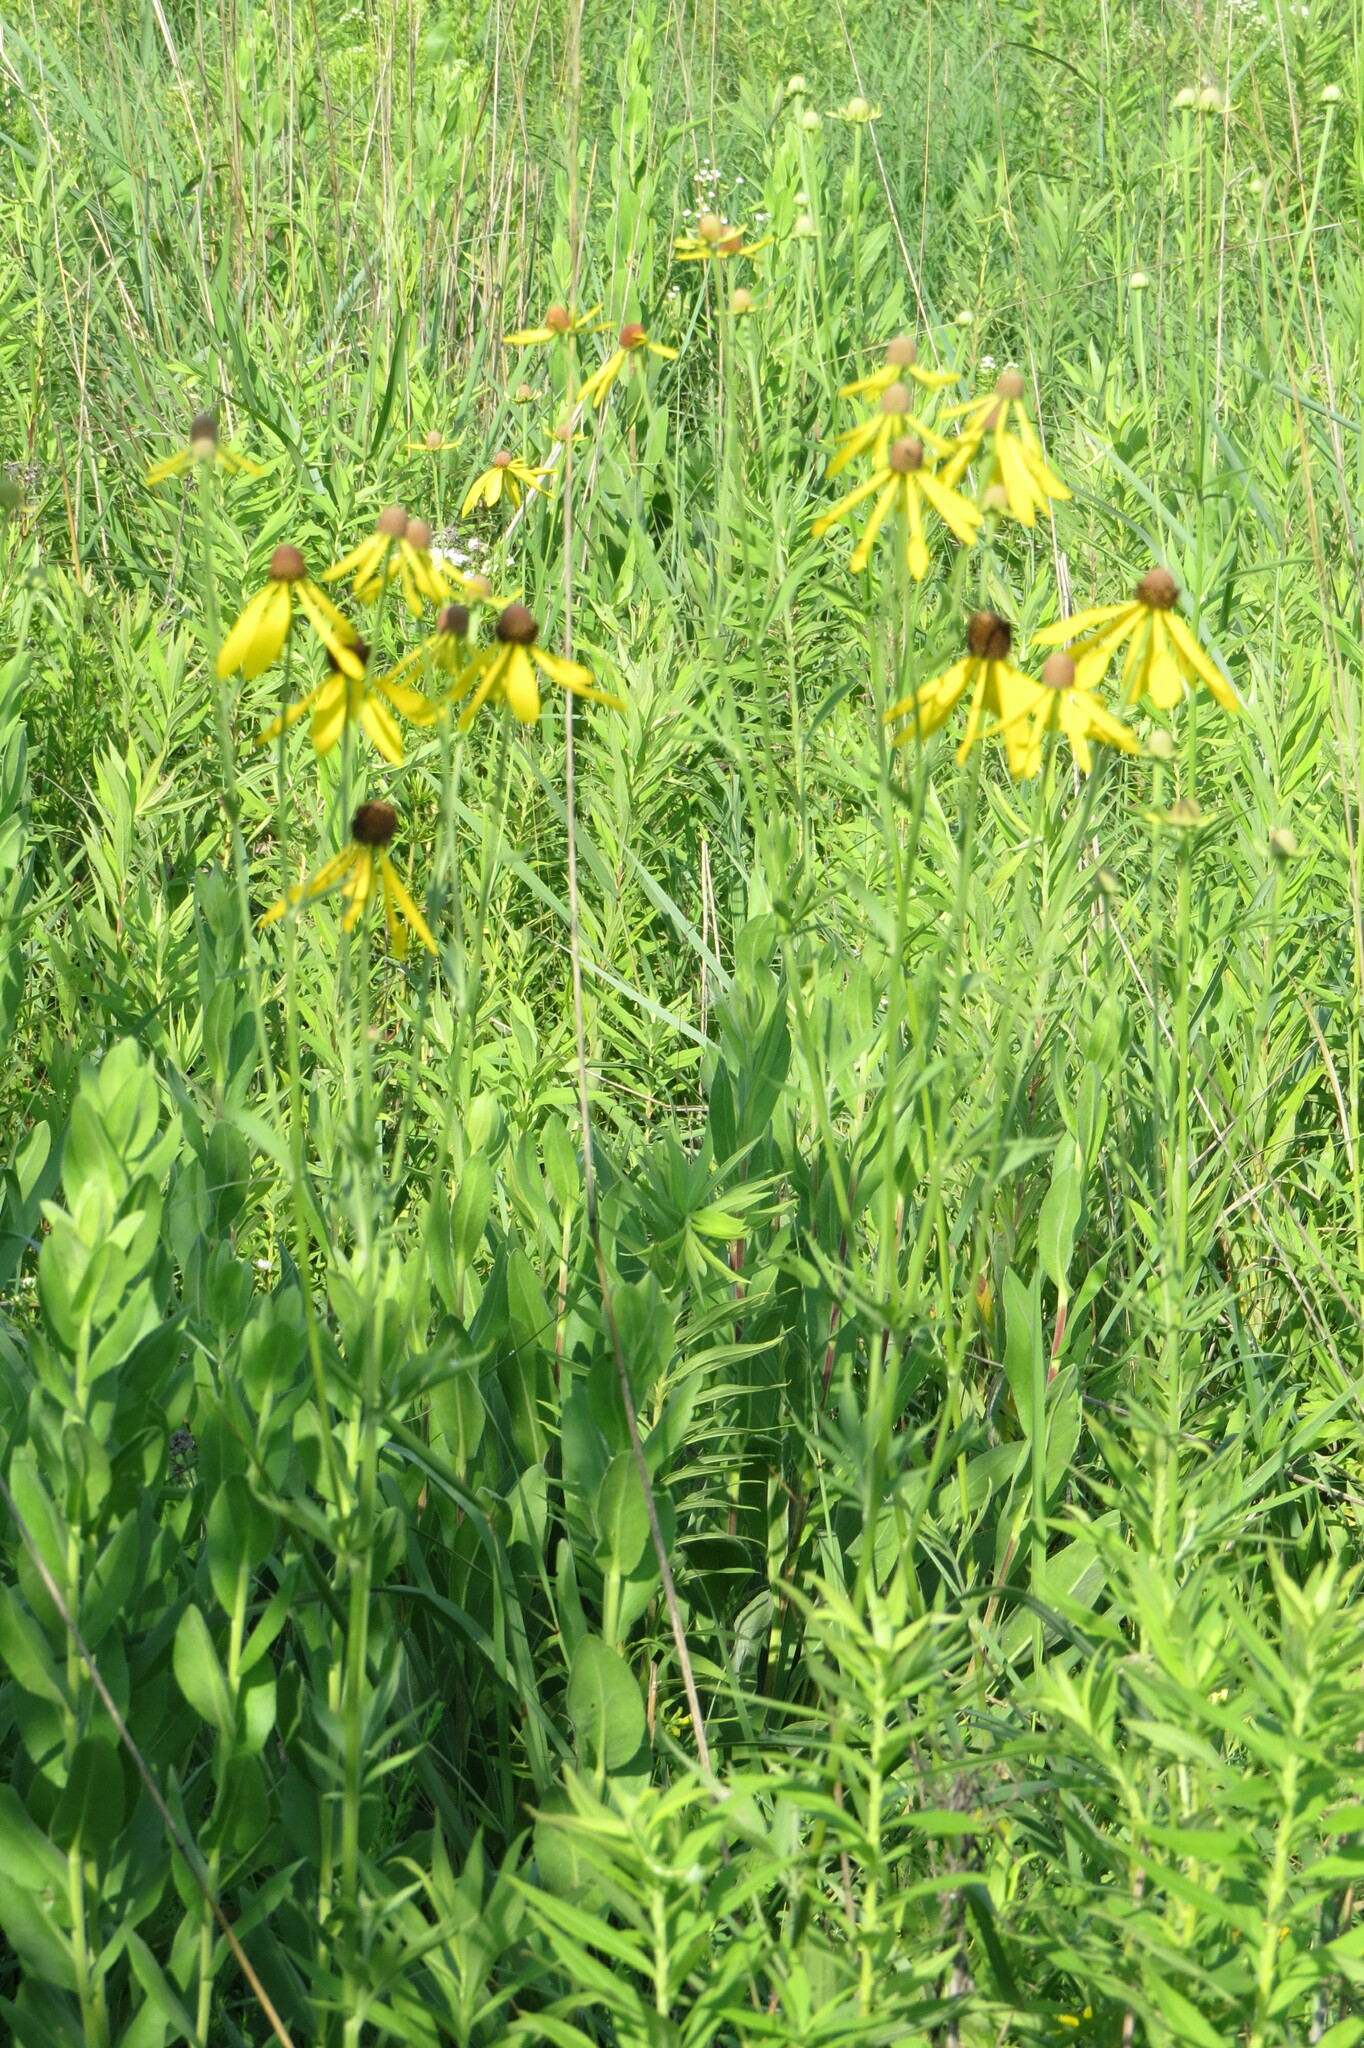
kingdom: Plantae
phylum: Tracheophyta
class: Magnoliopsida
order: Asterales
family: Asteraceae
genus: Ratibida
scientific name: Ratibida pinnata
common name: Drooping prairie-coneflower
